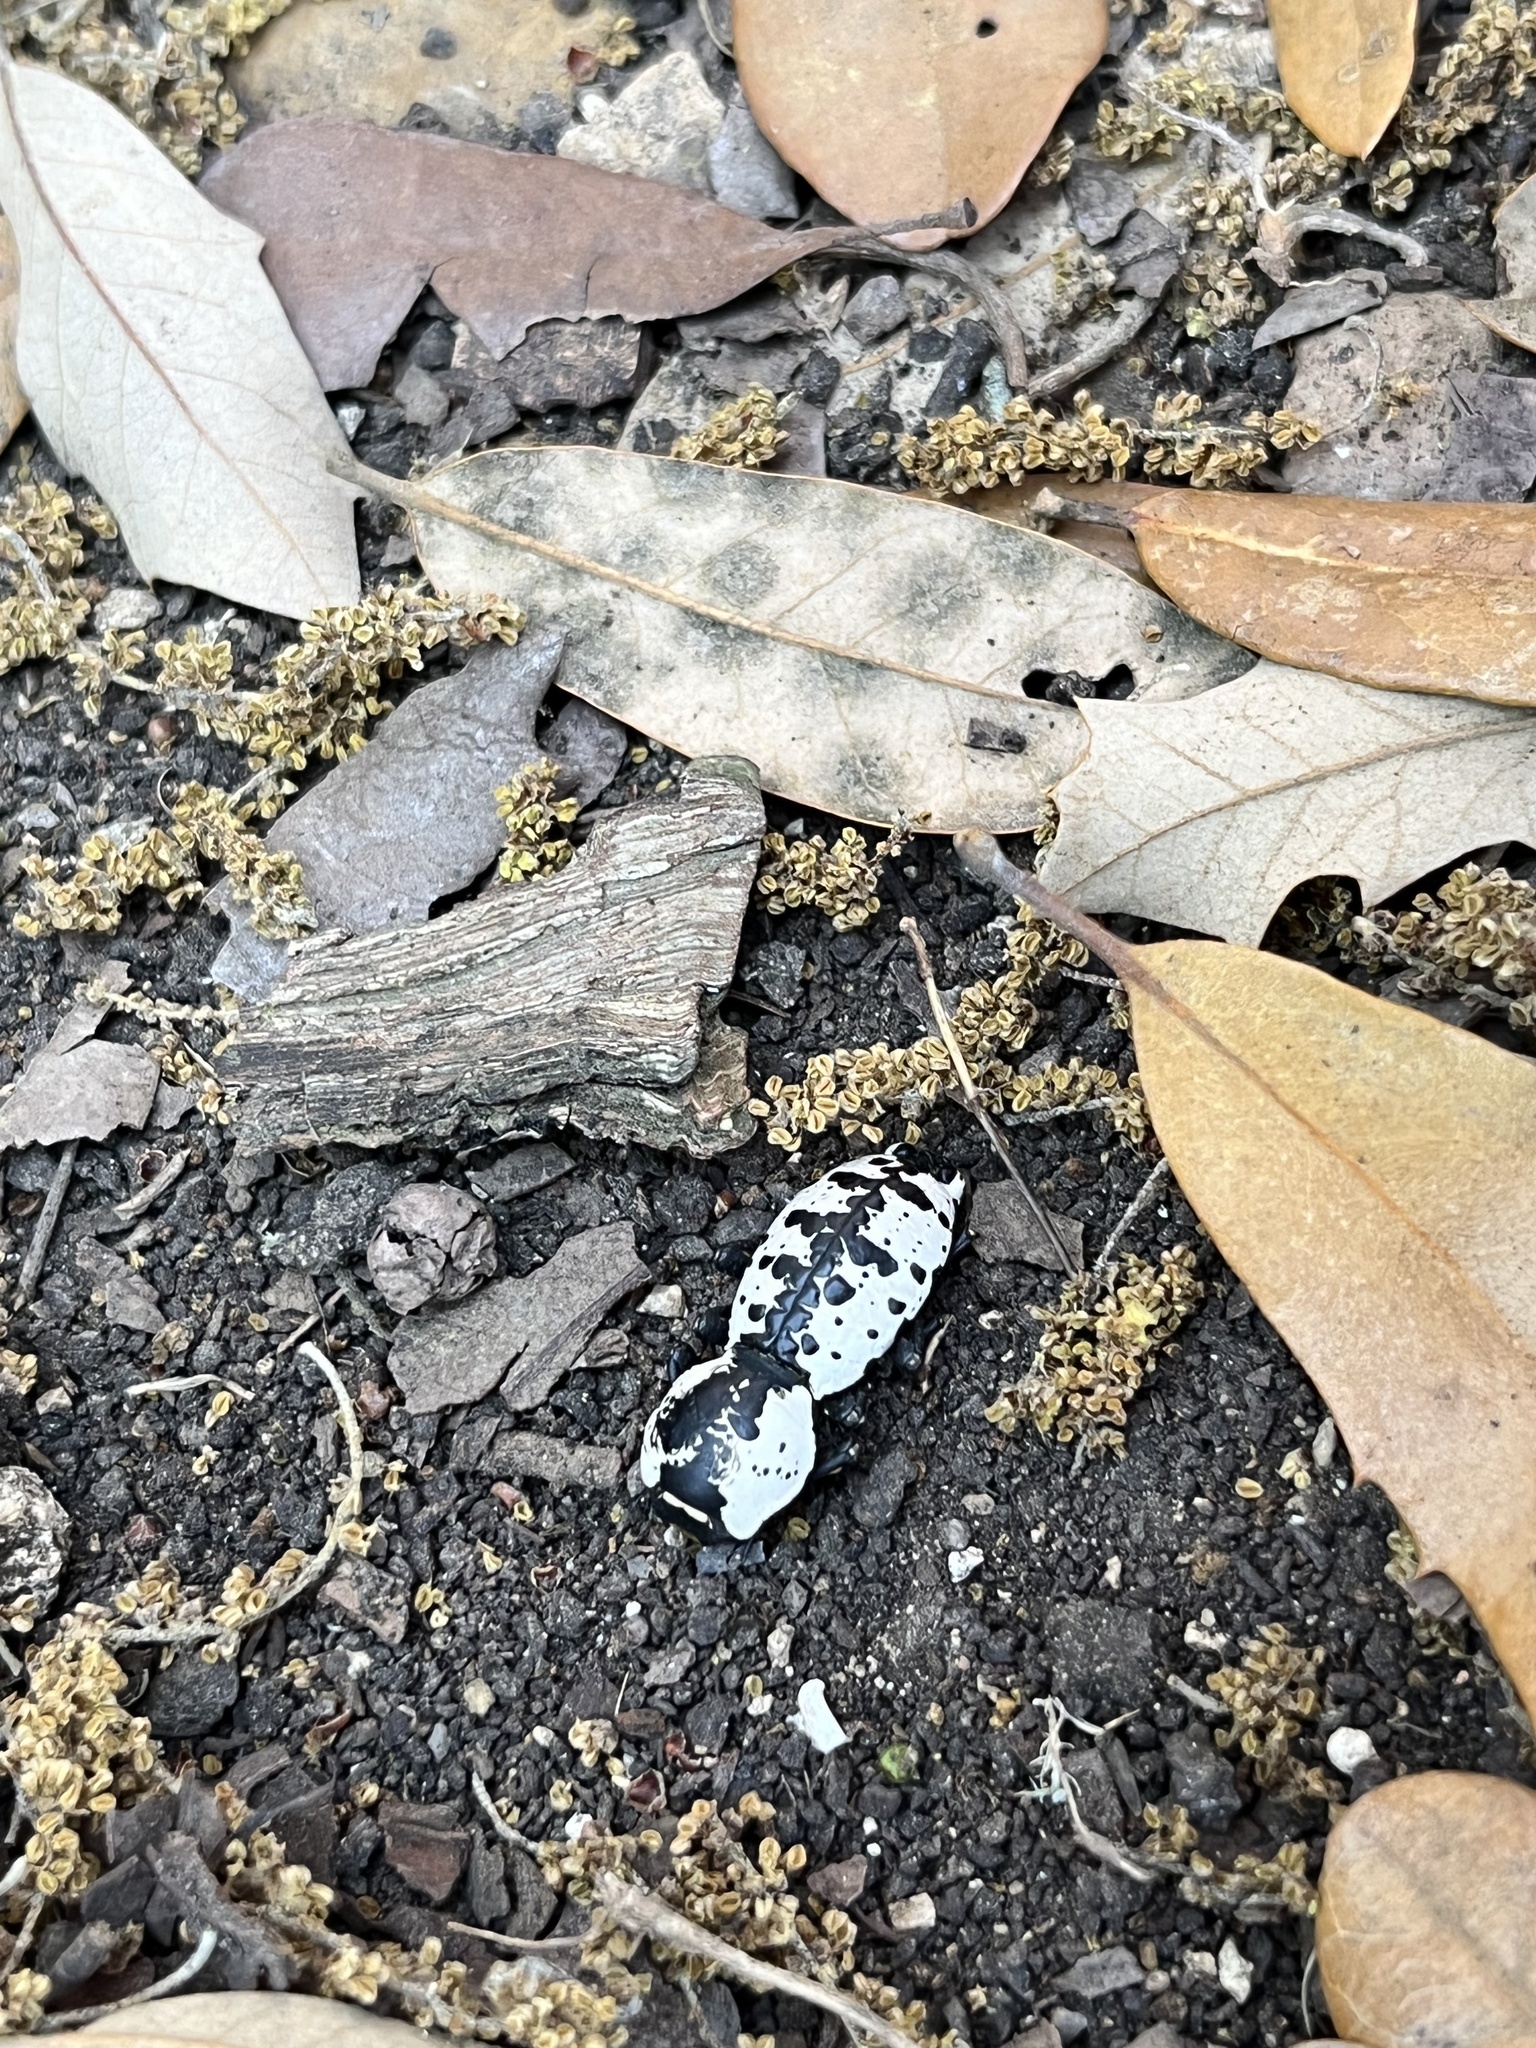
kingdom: Animalia
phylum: Arthropoda
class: Insecta
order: Coleoptera
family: Zopheridae
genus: Zopherus
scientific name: Zopherus nodulosus
